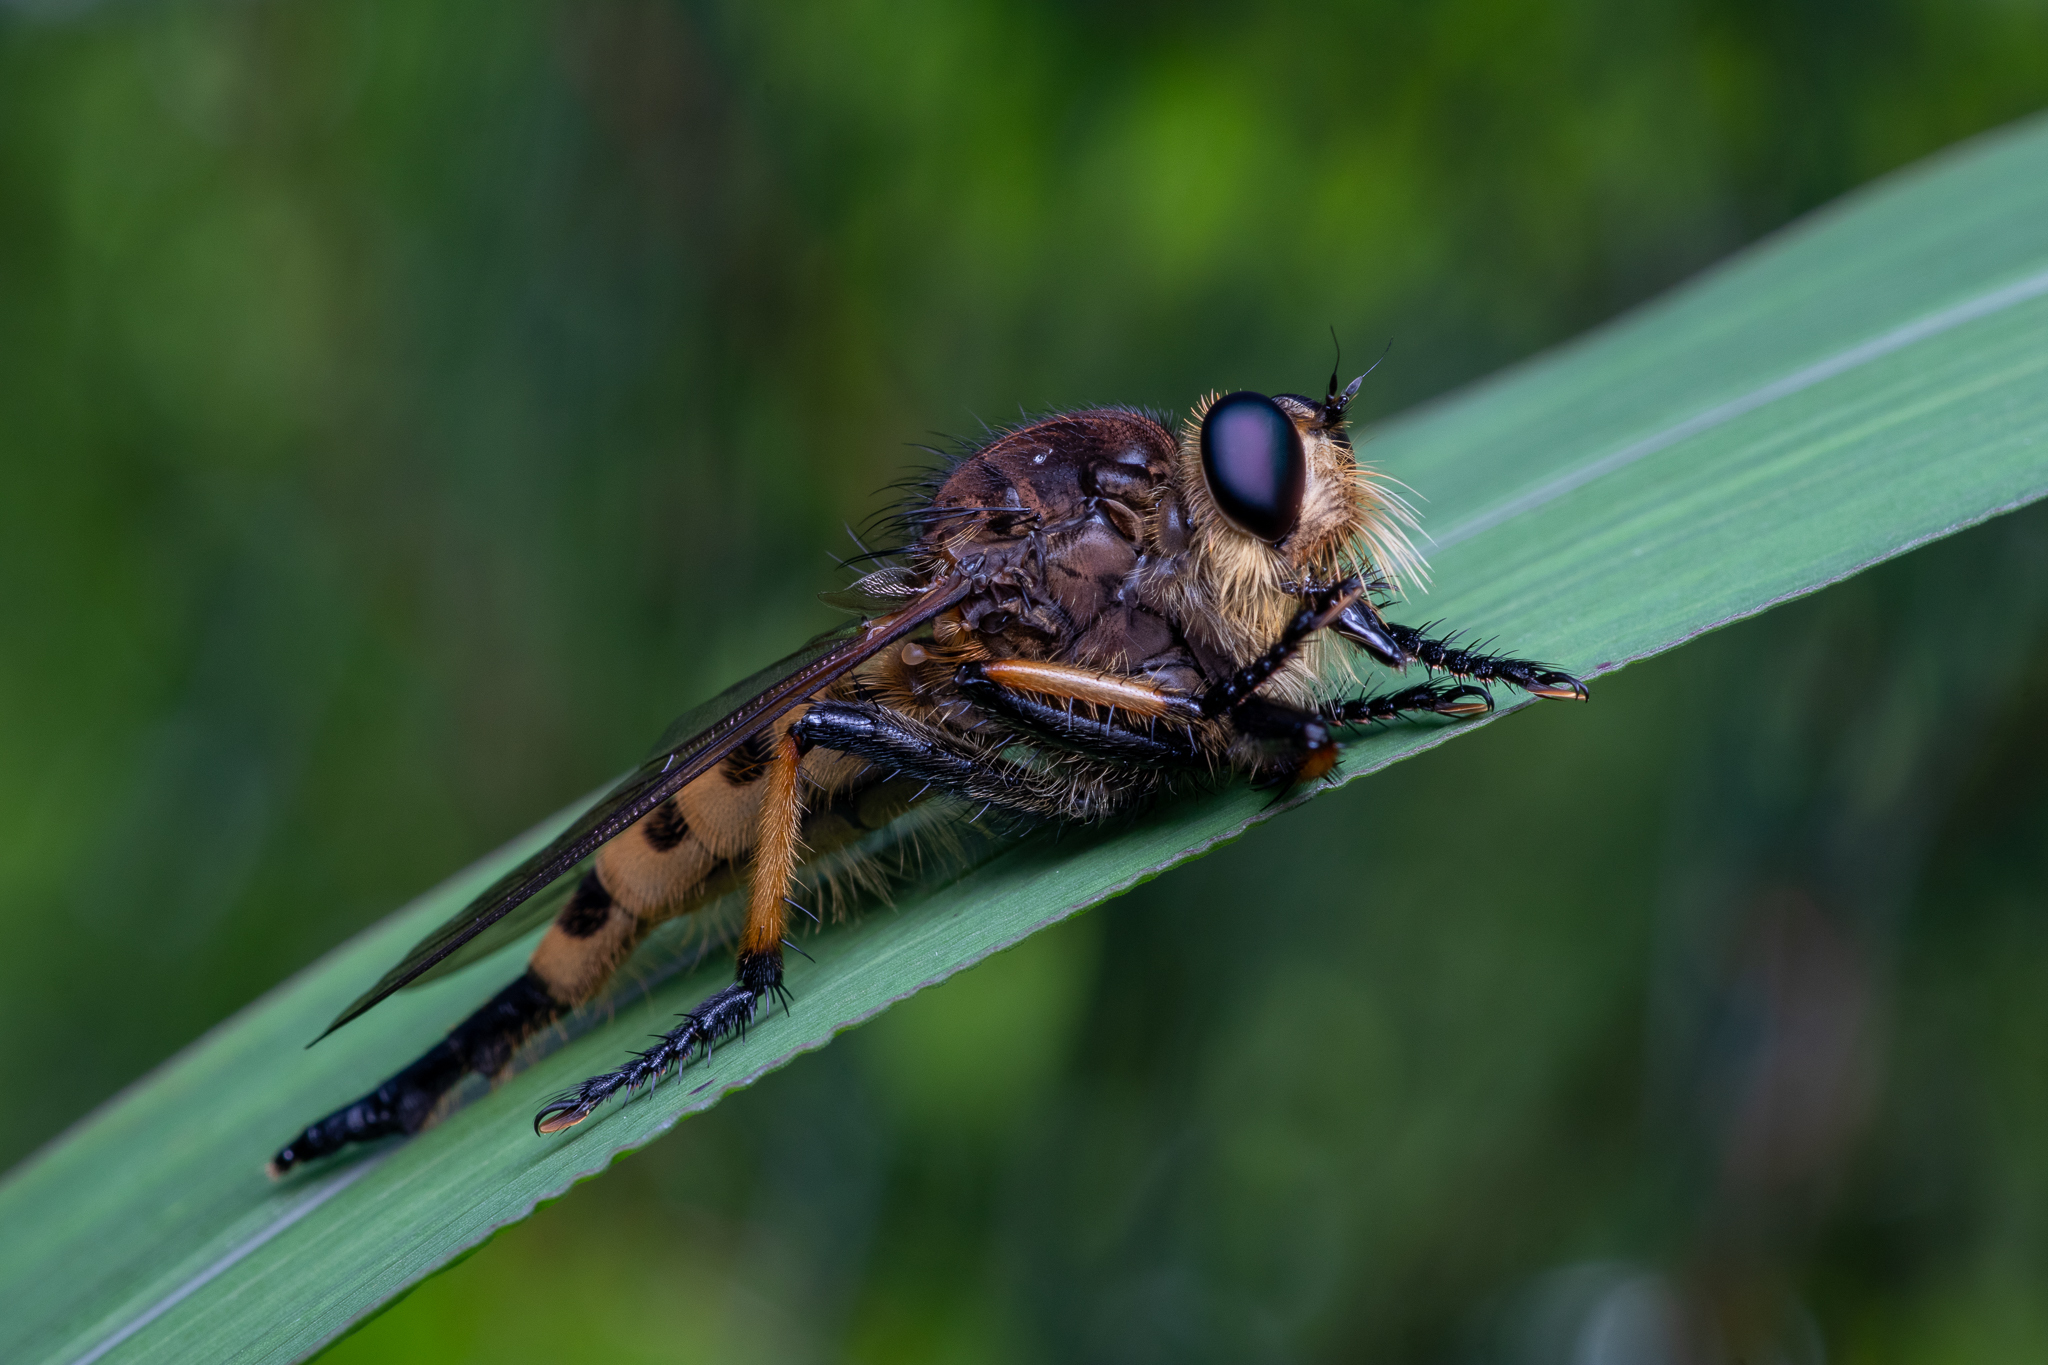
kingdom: Animalia
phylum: Arthropoda
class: Insecta
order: Diptera
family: Asilidae
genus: Promachus
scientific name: Promachus rufipes
